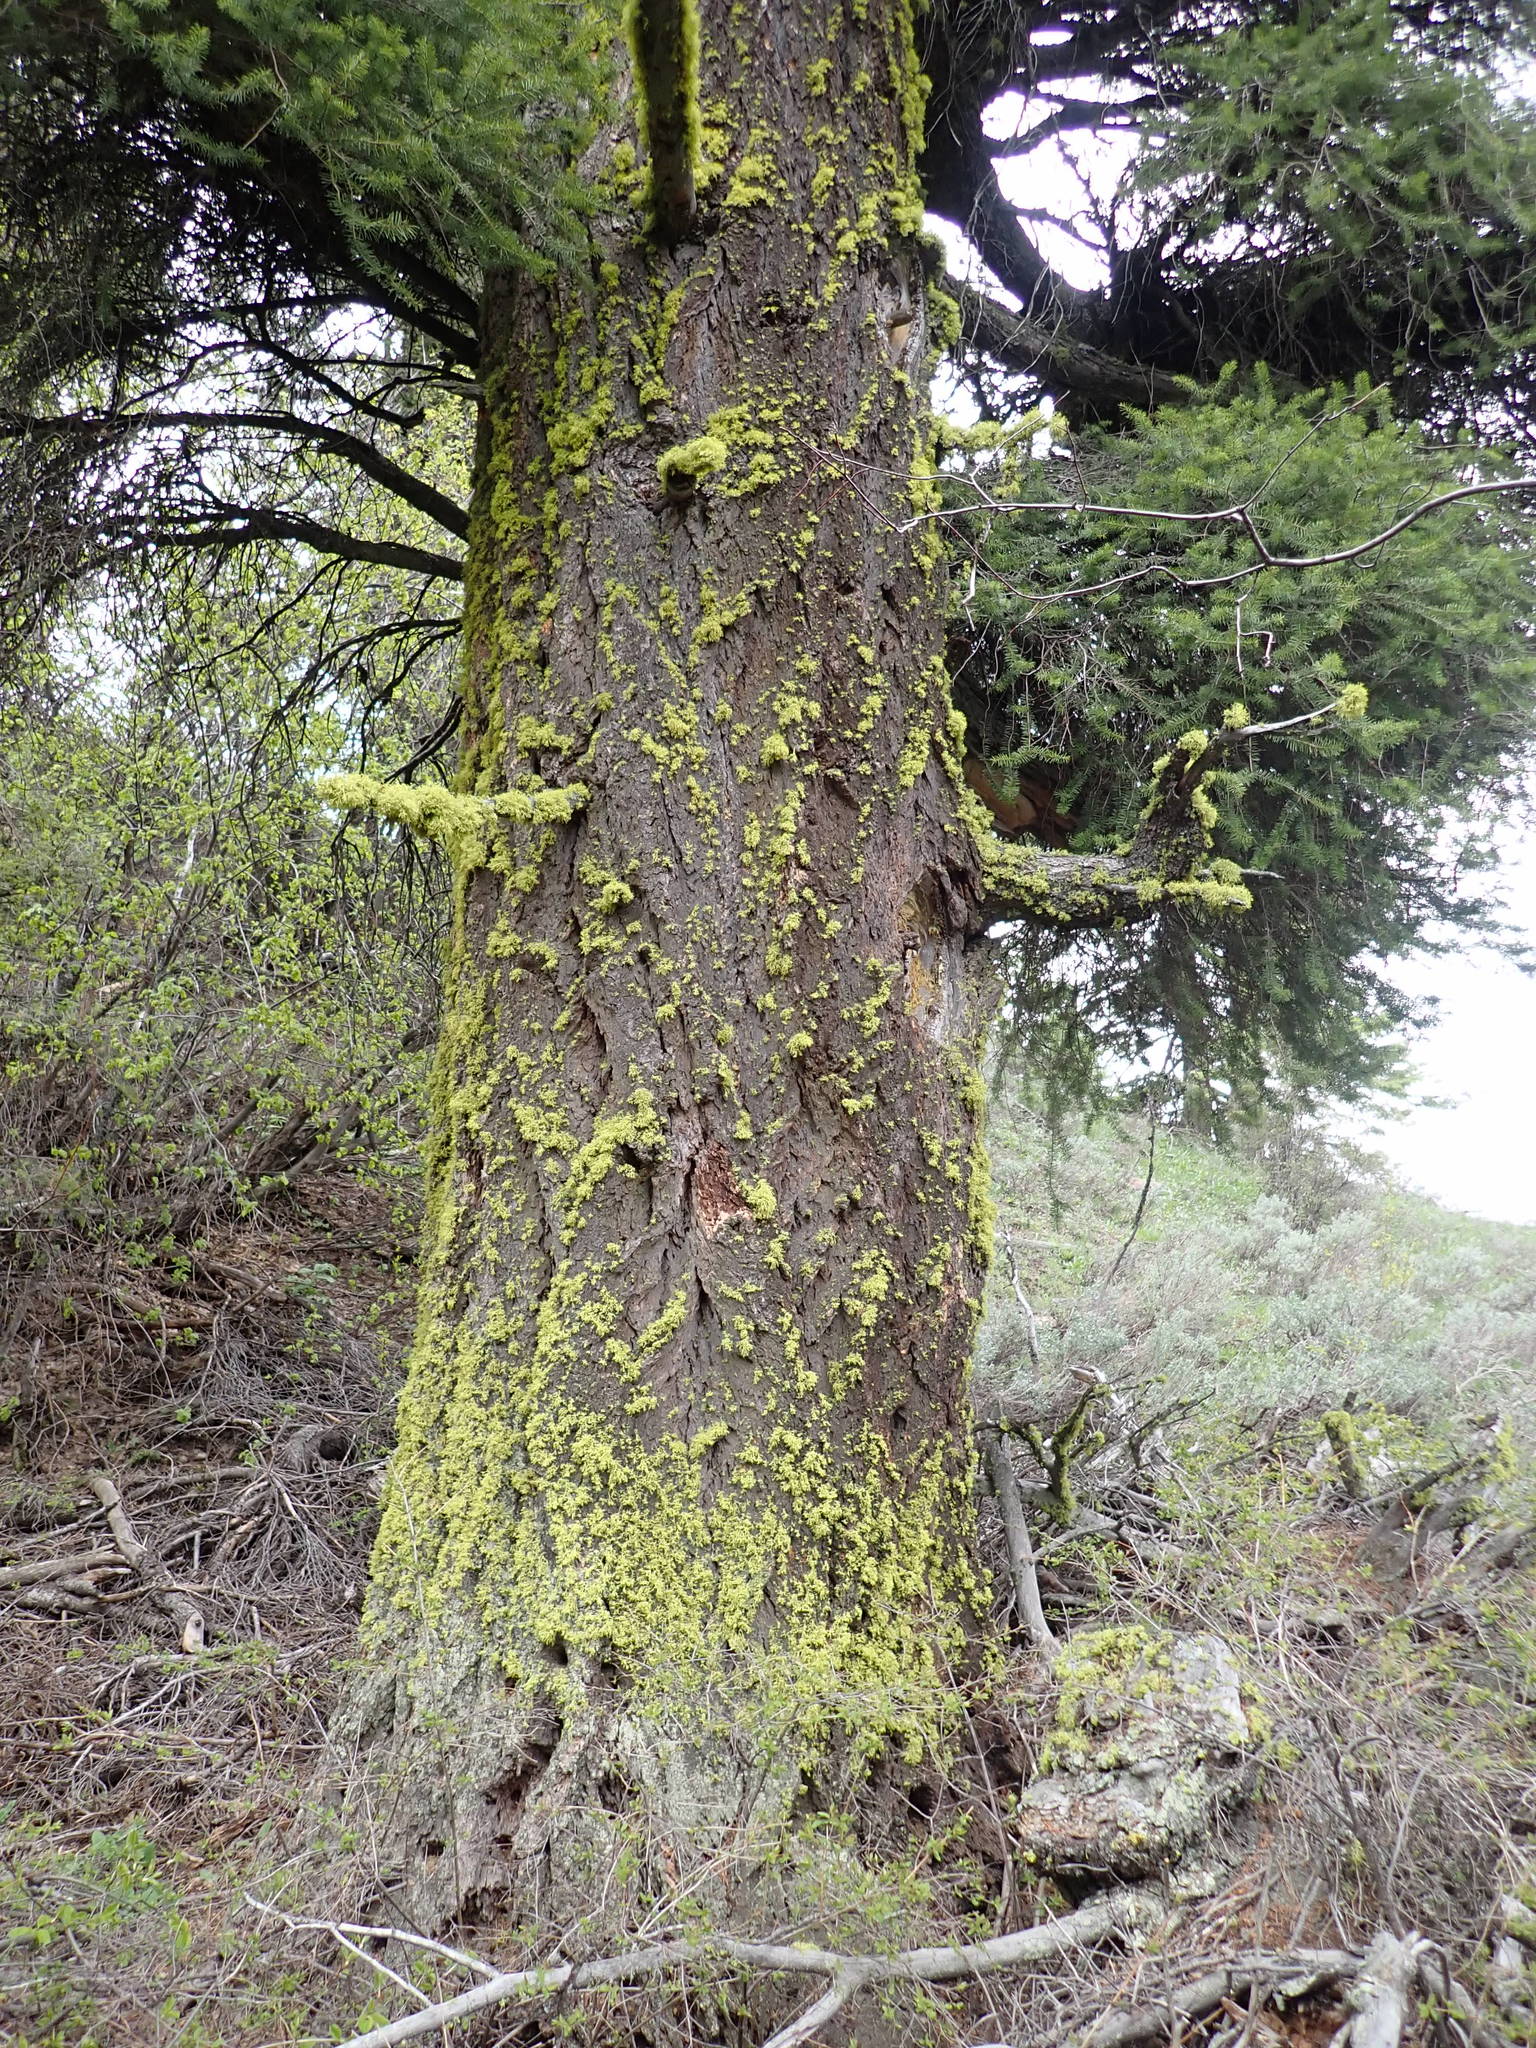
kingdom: Plantae
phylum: Tracheophyta
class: Pinopsida
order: Pinales
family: Pinaceae
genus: Pseudotsuga
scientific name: Pseudotsuga menziesii
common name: Douglas fir
